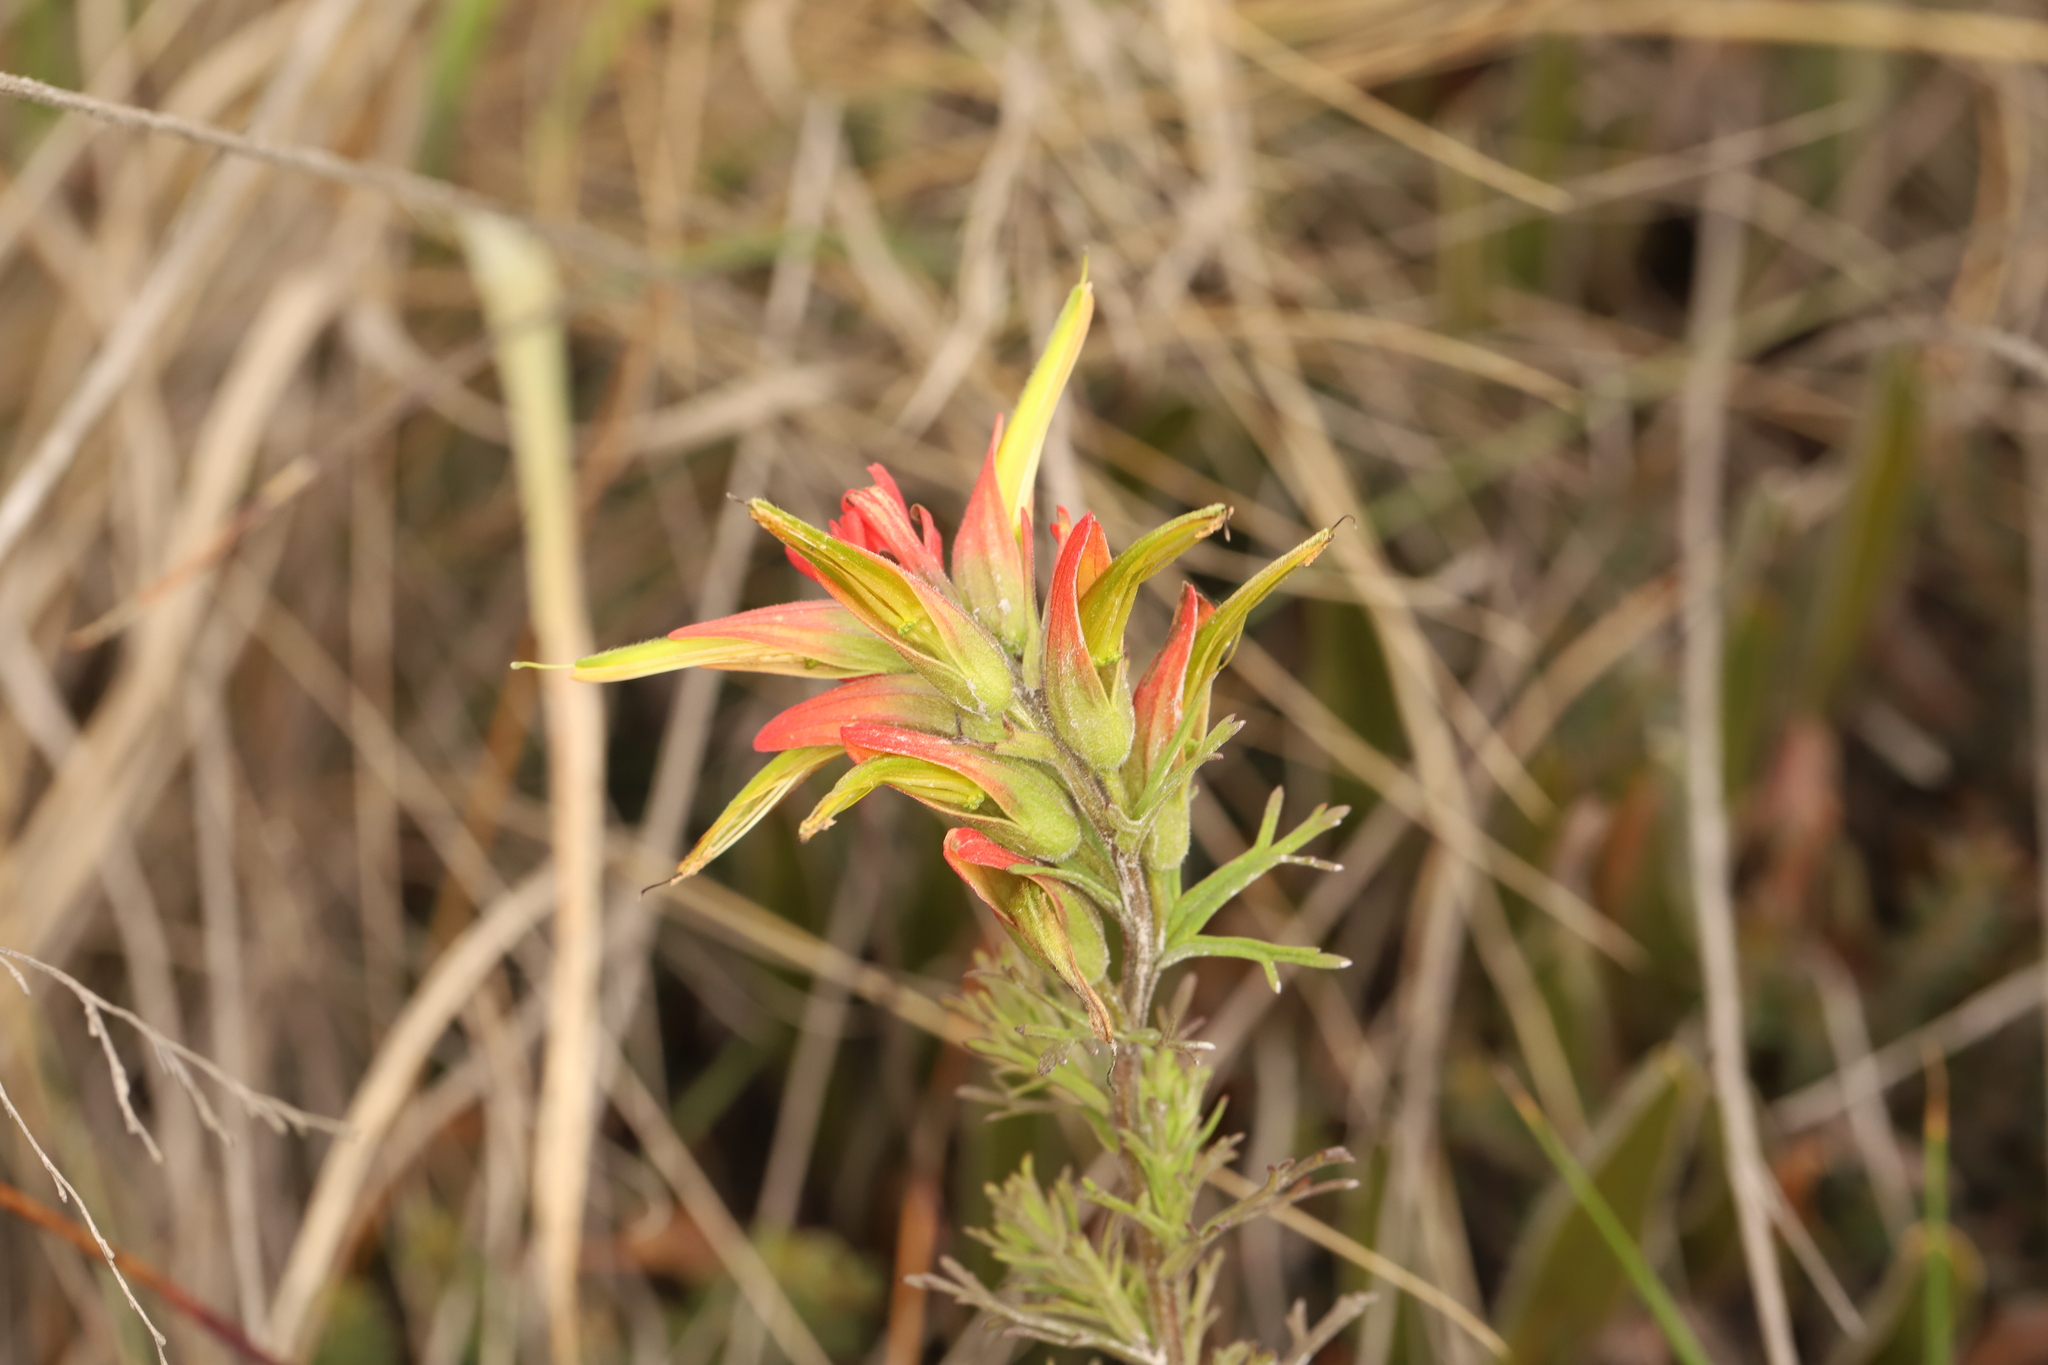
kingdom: Plantae
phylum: Tracheophyta
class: Magnoliopsida
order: Lamiales
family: Orobanchaceae
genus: Castilleja
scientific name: Castilleja fissifolia
